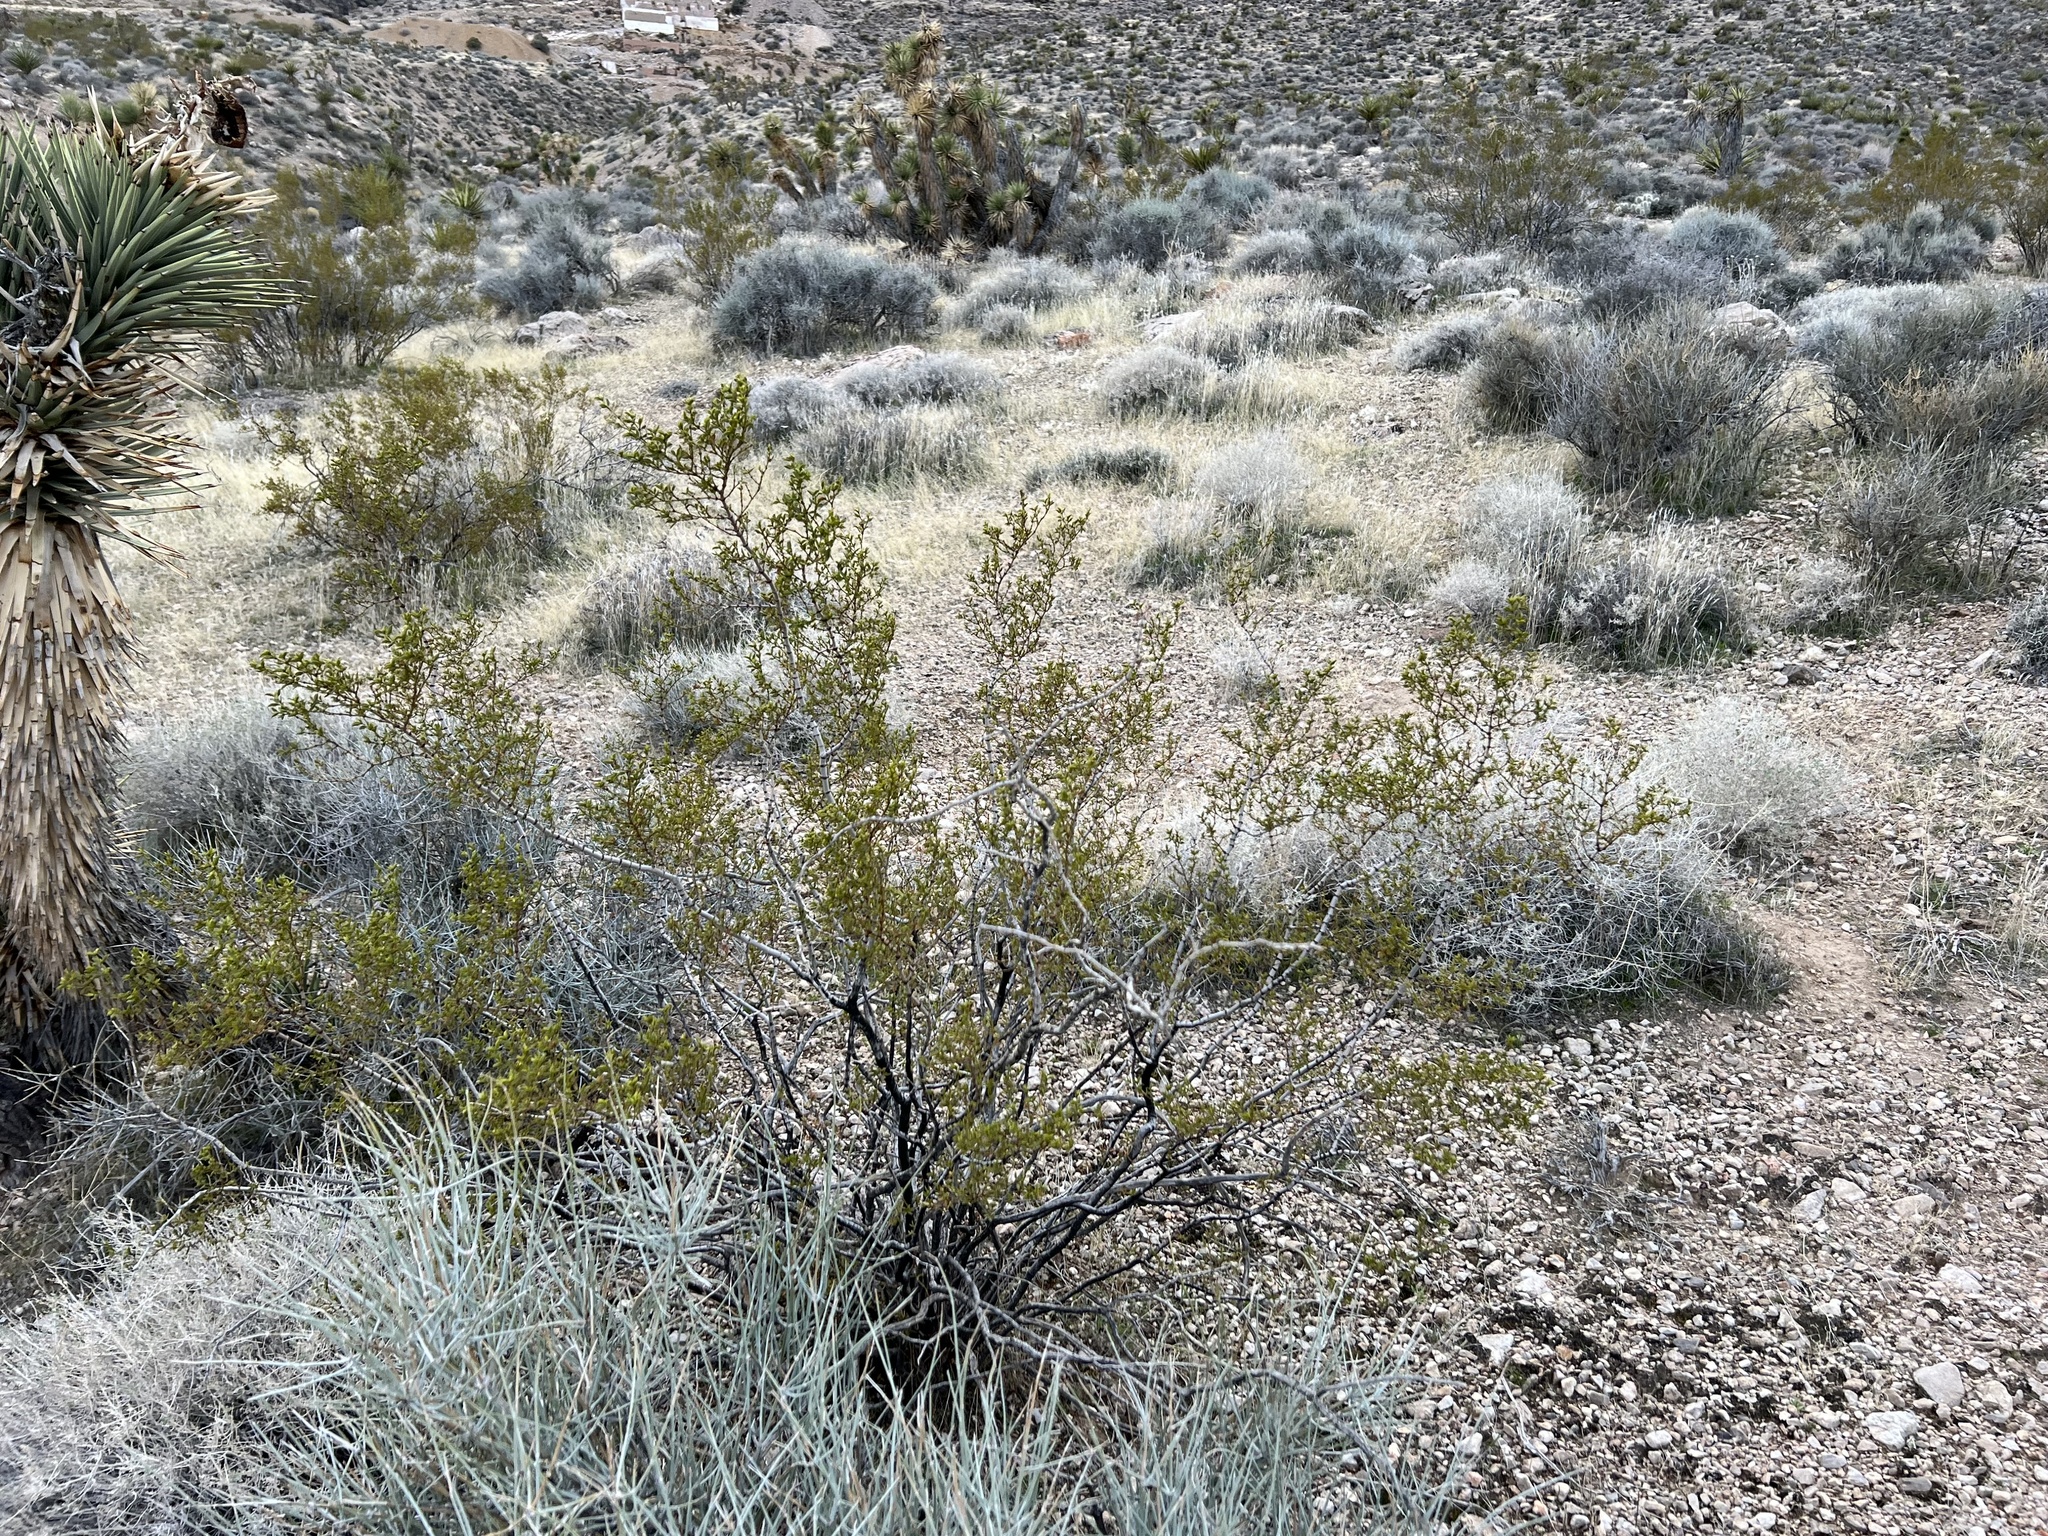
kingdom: Plantae
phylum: Tracheophyta
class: Magnoliopsida
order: Zygophyllales
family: Zygophyllaceae
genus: Larrea
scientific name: Larrea tridentata
